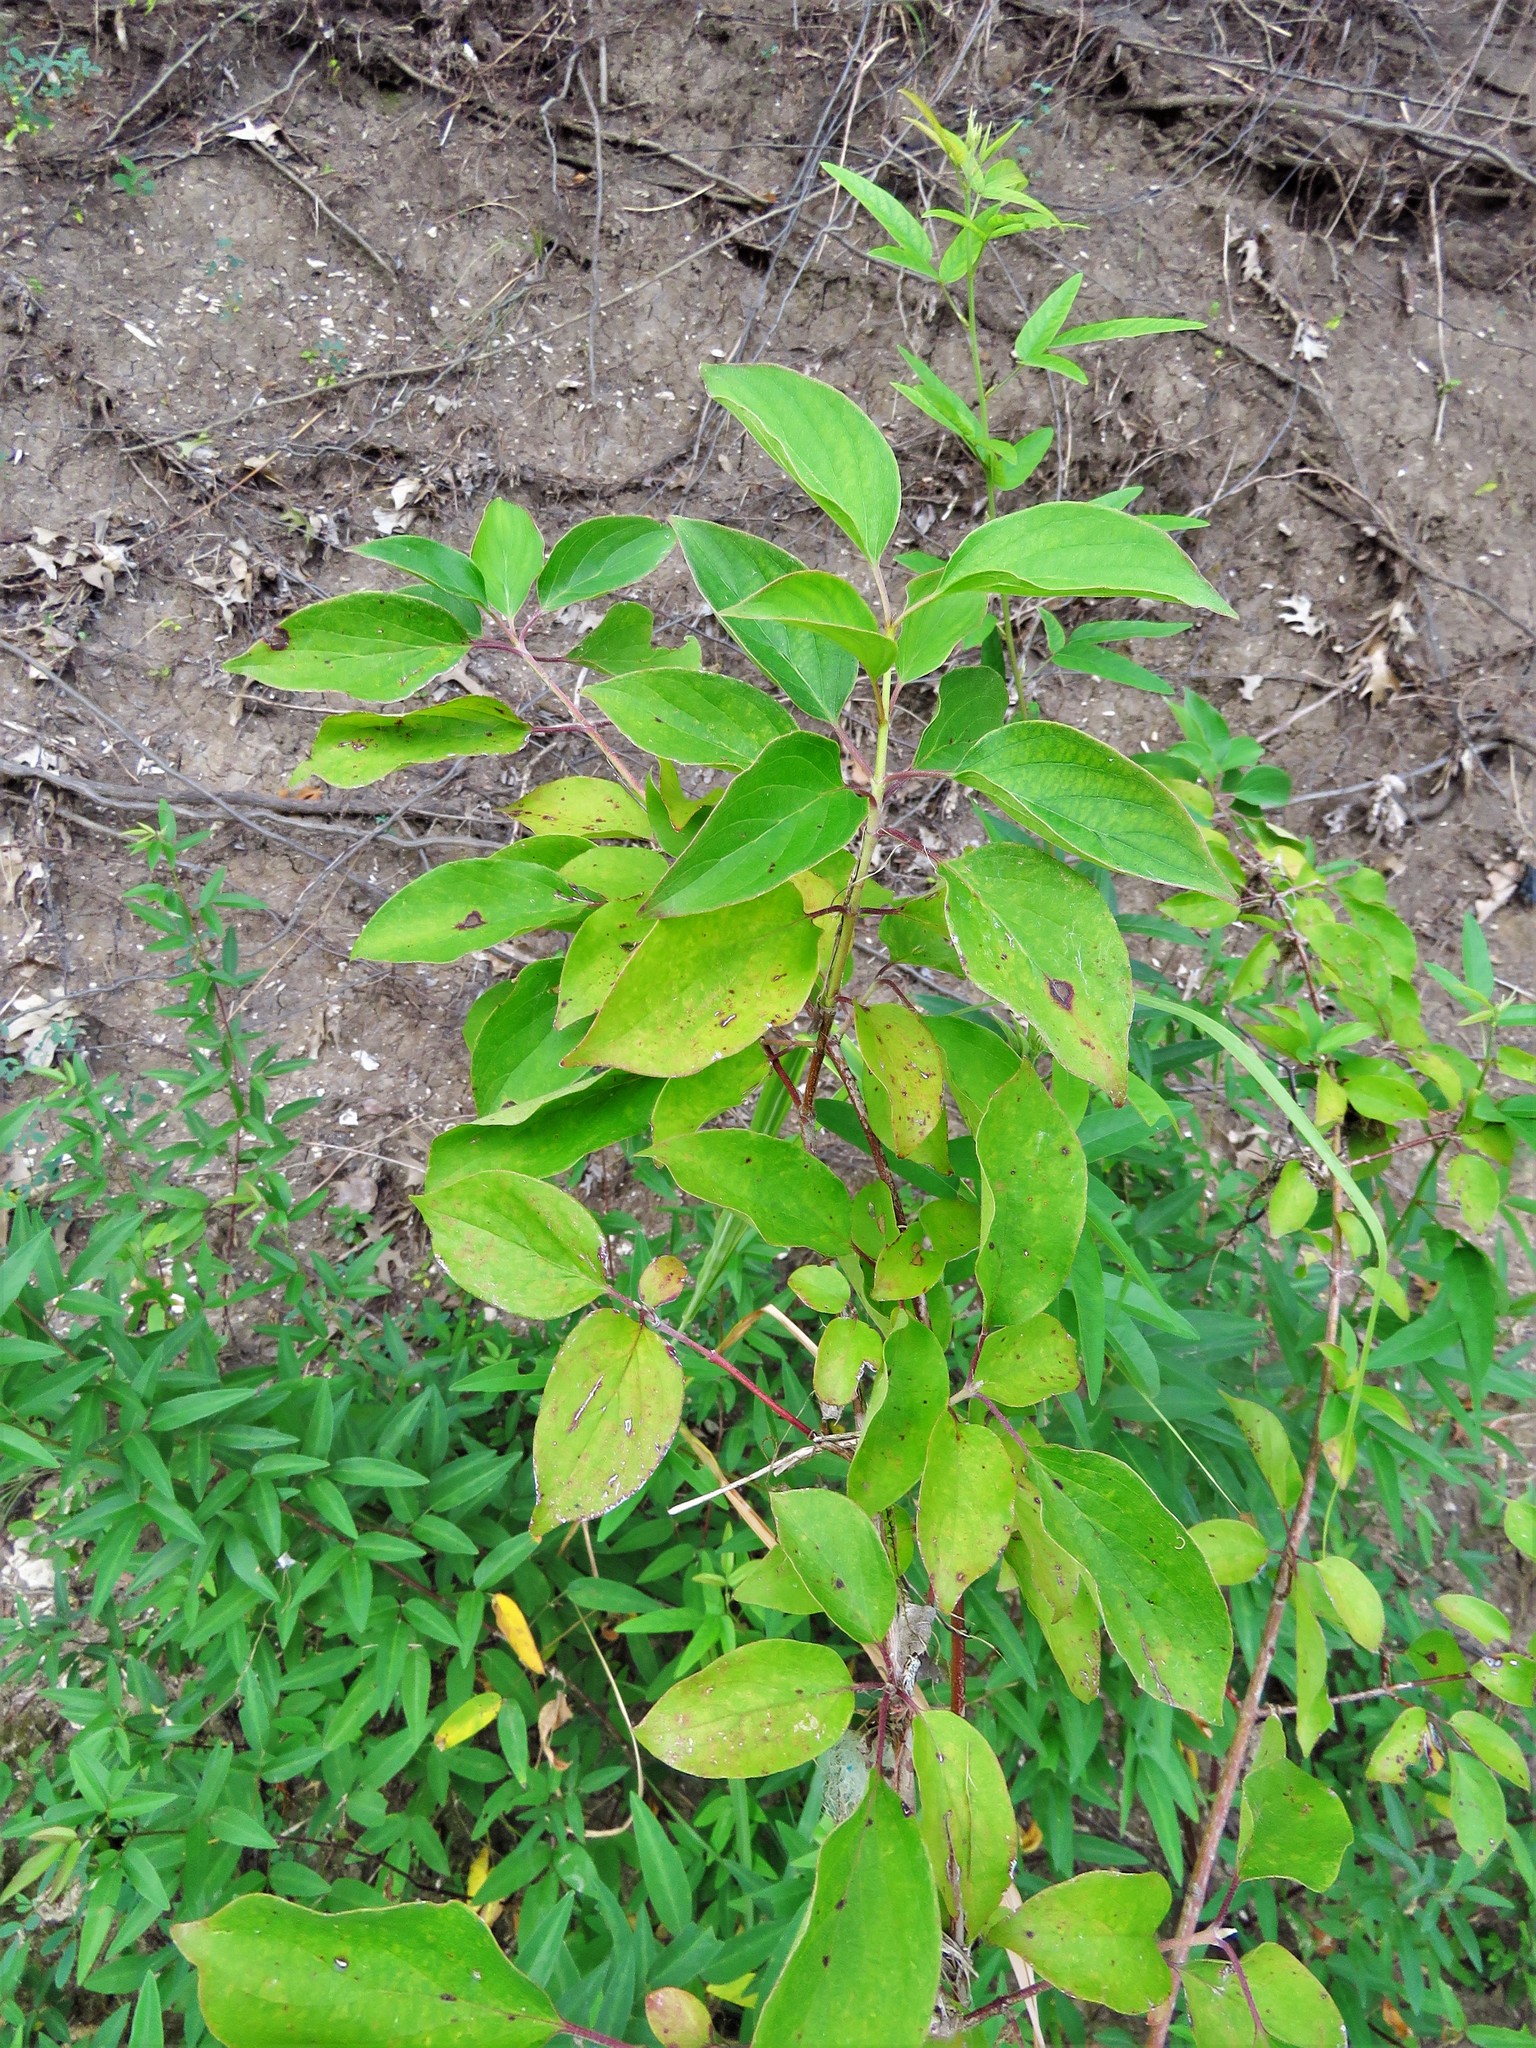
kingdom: Plantae
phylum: Tracheophyta
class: Magnoliopsida
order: Cornales
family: Cornaceae
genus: Cornus
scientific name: Cornus drummondii
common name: Rough-leaf dogwood
